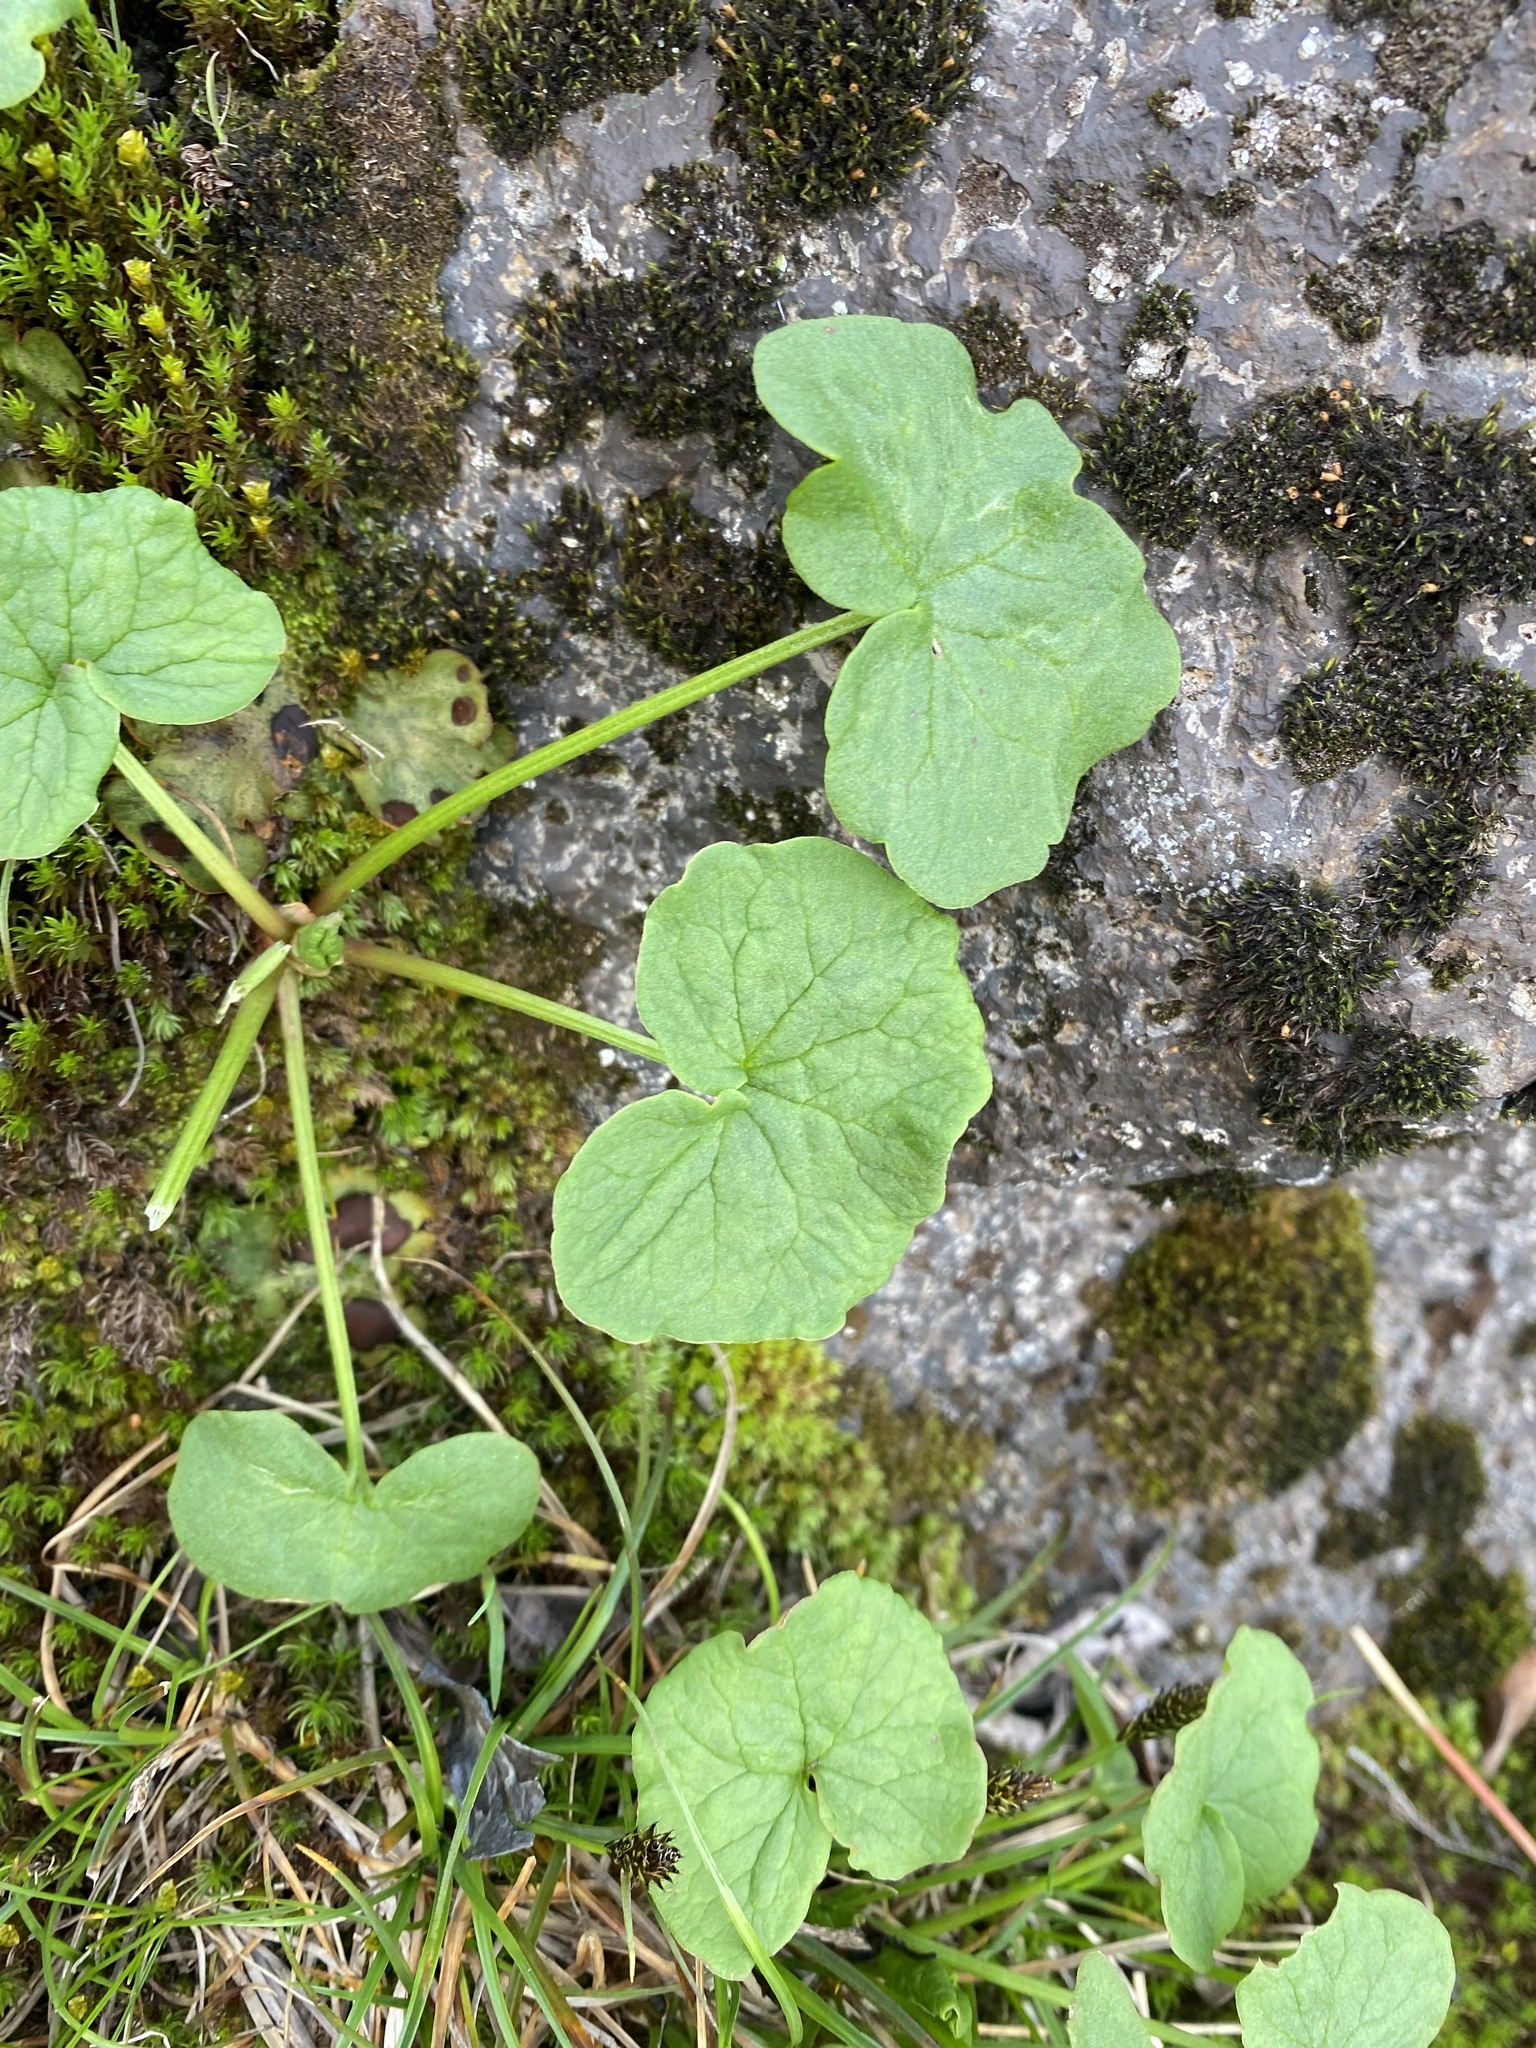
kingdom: Plantae
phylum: Tracheophyta
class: Magnoliopsida
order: Caryophyllales
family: Polygonaceae
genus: Oxyria
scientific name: Oxyria digyna
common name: Alpine mountain-sorrel
